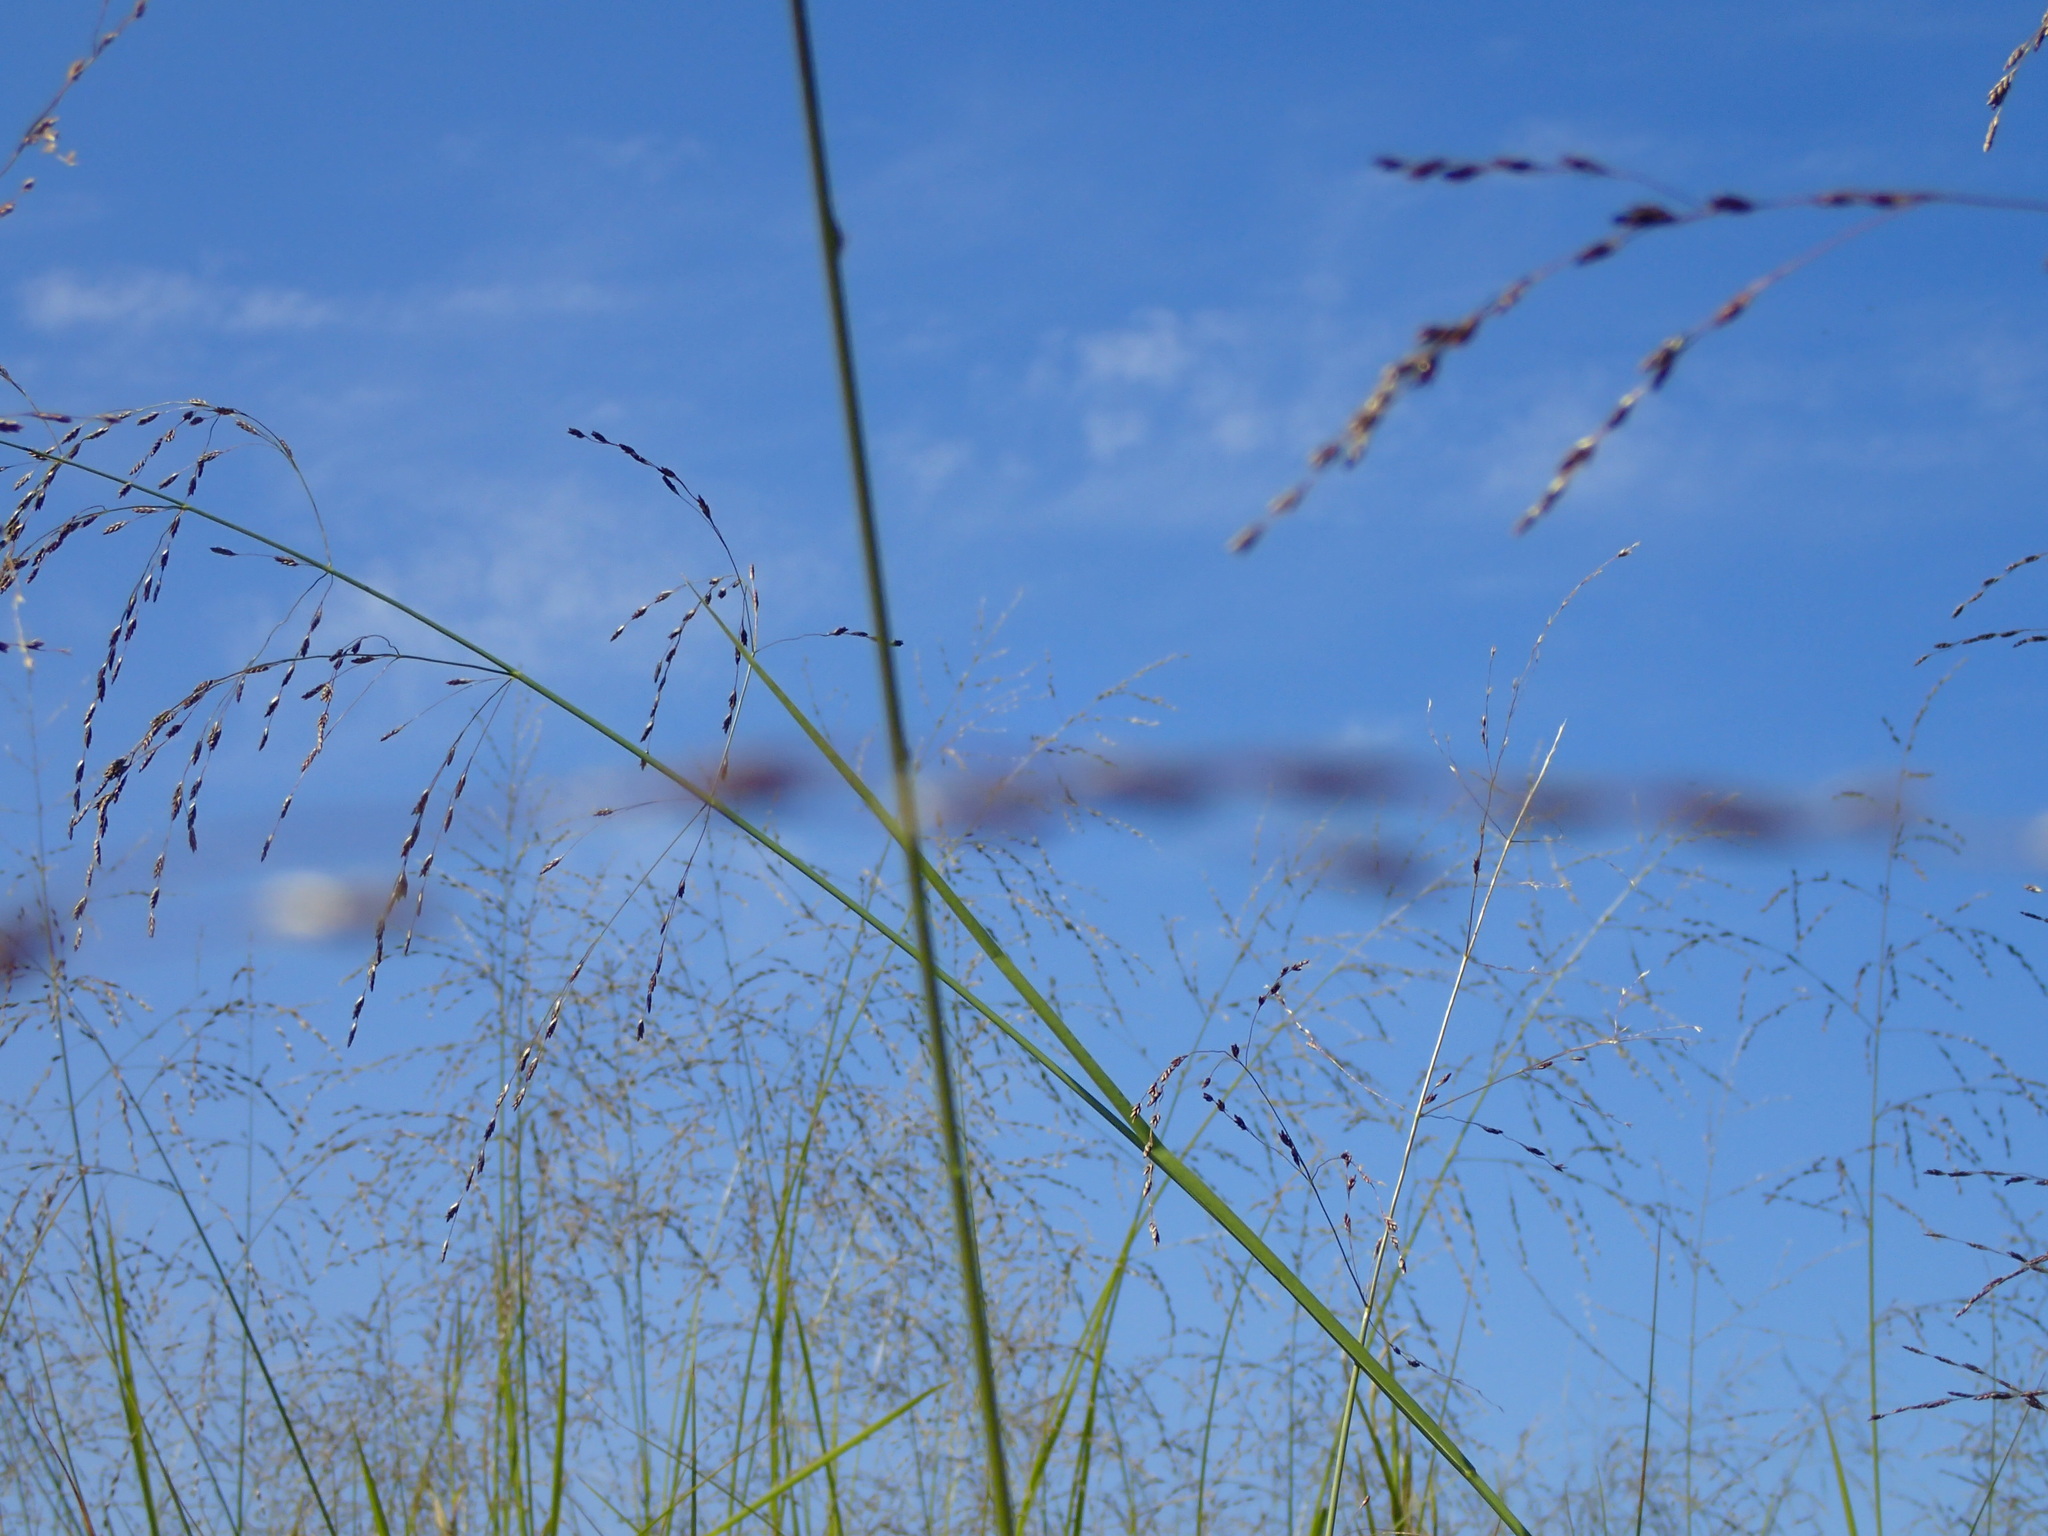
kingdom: Plantae
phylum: Tracheophyta
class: Liliopsida
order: Poales
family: Poaceae
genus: Glyceria
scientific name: Glyceria grandis
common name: American glyceria
